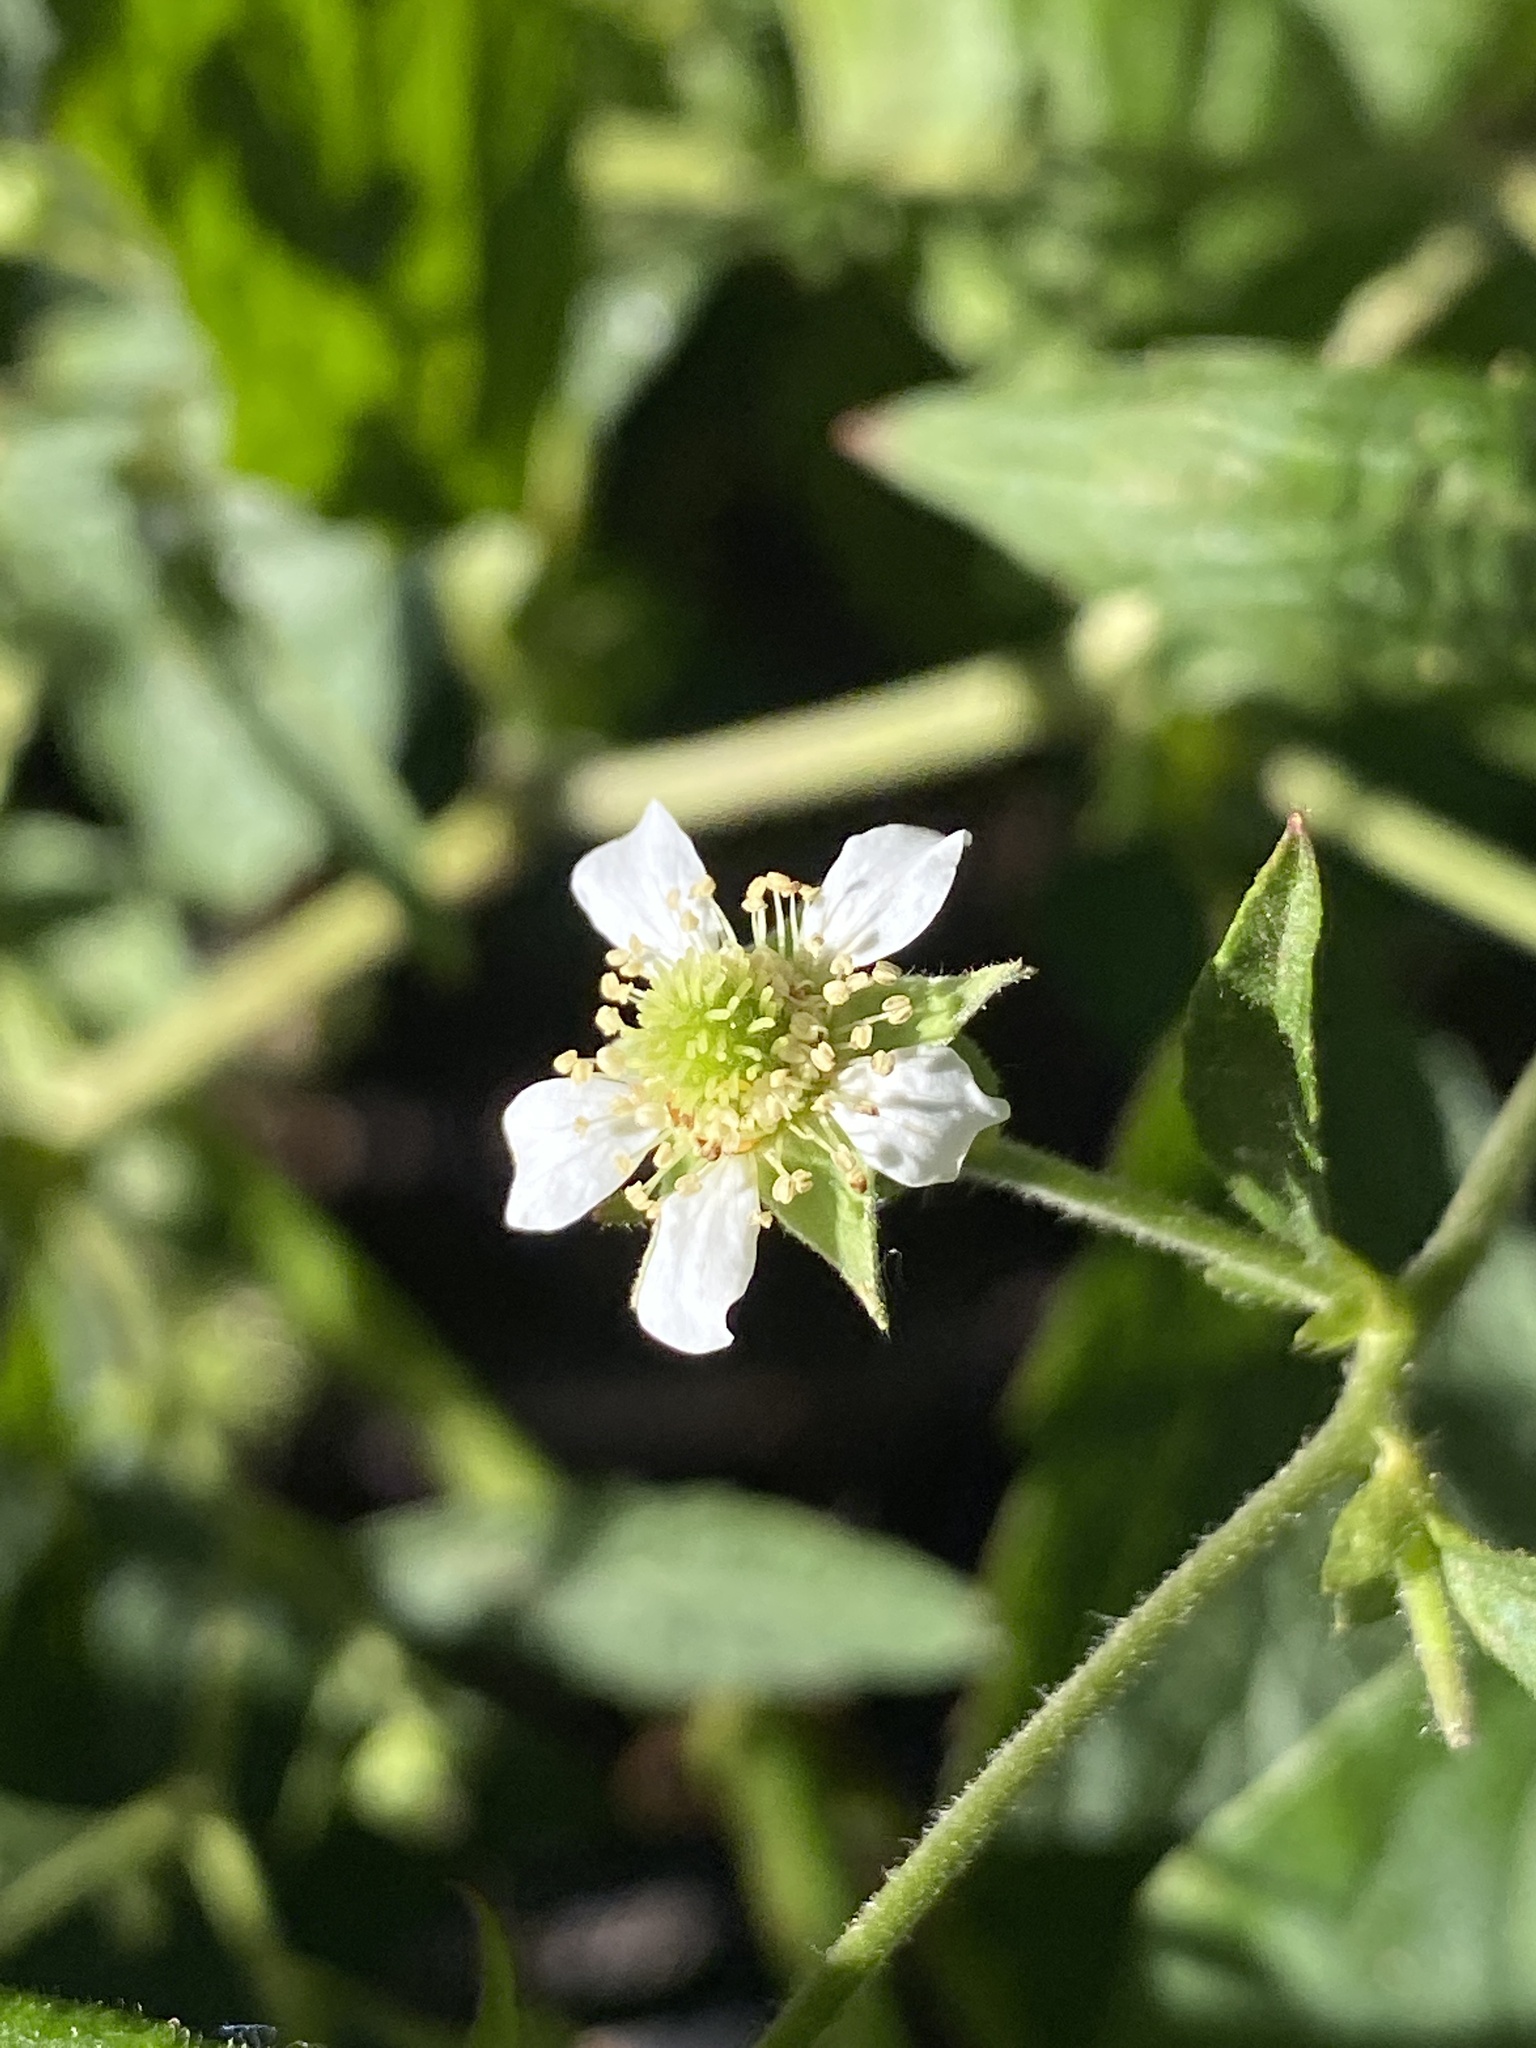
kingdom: Plantae
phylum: Tracheophyta
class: Magnoliopsida
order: Rosales
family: Rosaceae
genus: Geum
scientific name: Geum canadense
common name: White avens
